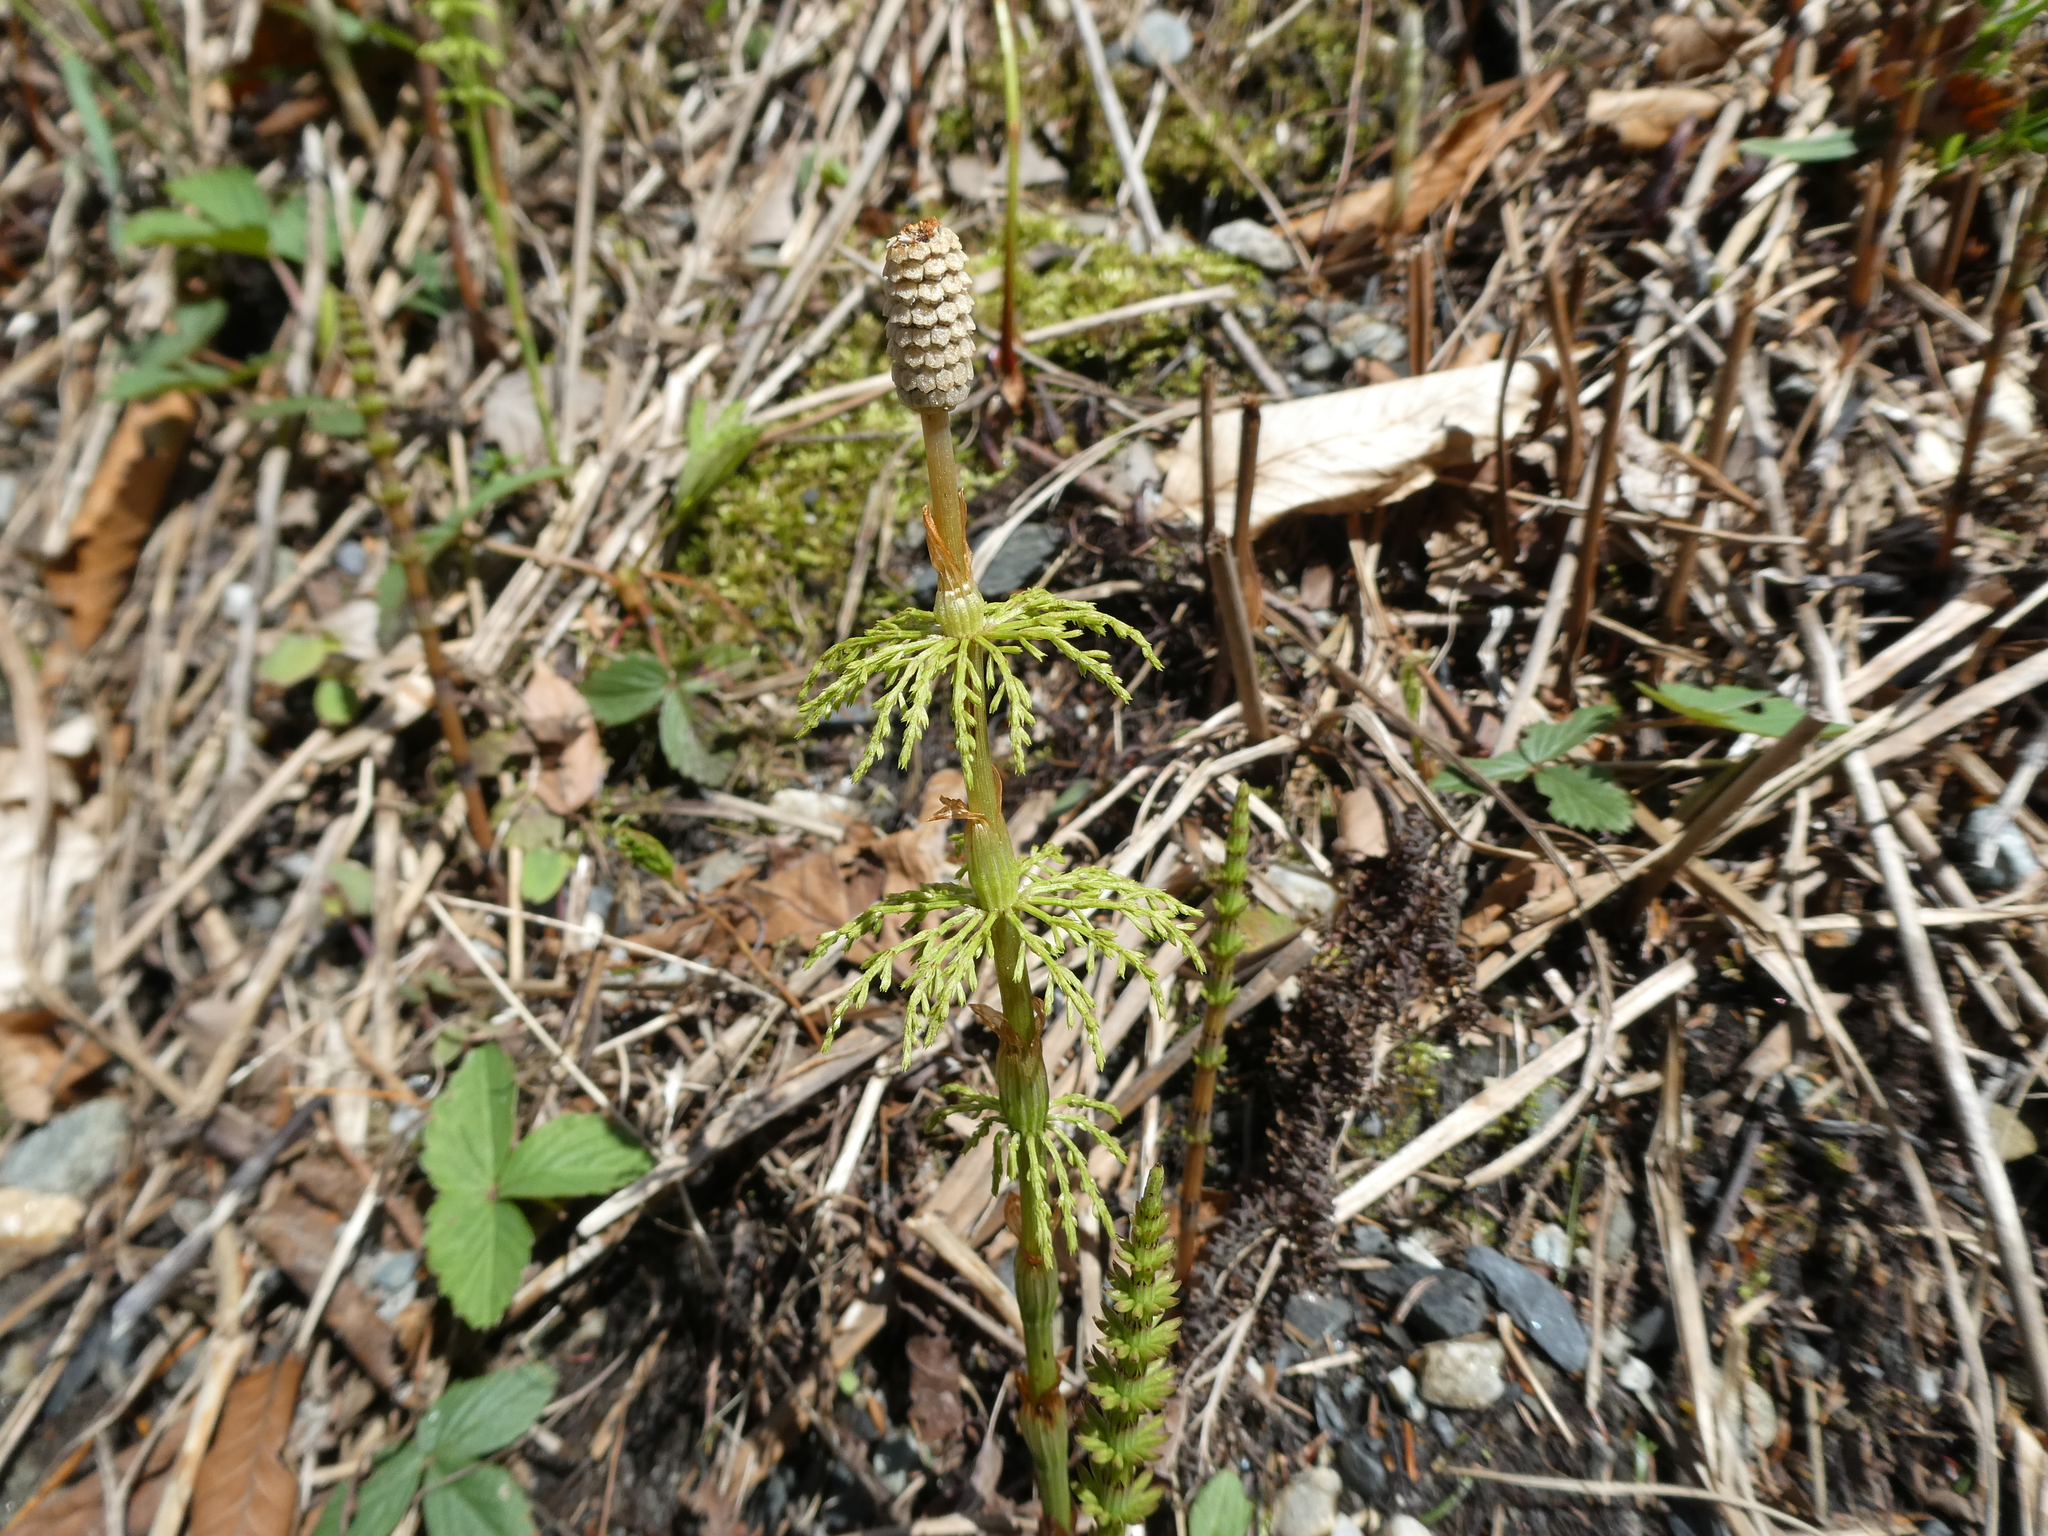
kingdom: Plantae
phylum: Tracheophyta
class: Polypodiopsida
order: Equisetales
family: Equisetaceae
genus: Equisetum
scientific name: Equisetum sylvaticum
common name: Wood horsetail
